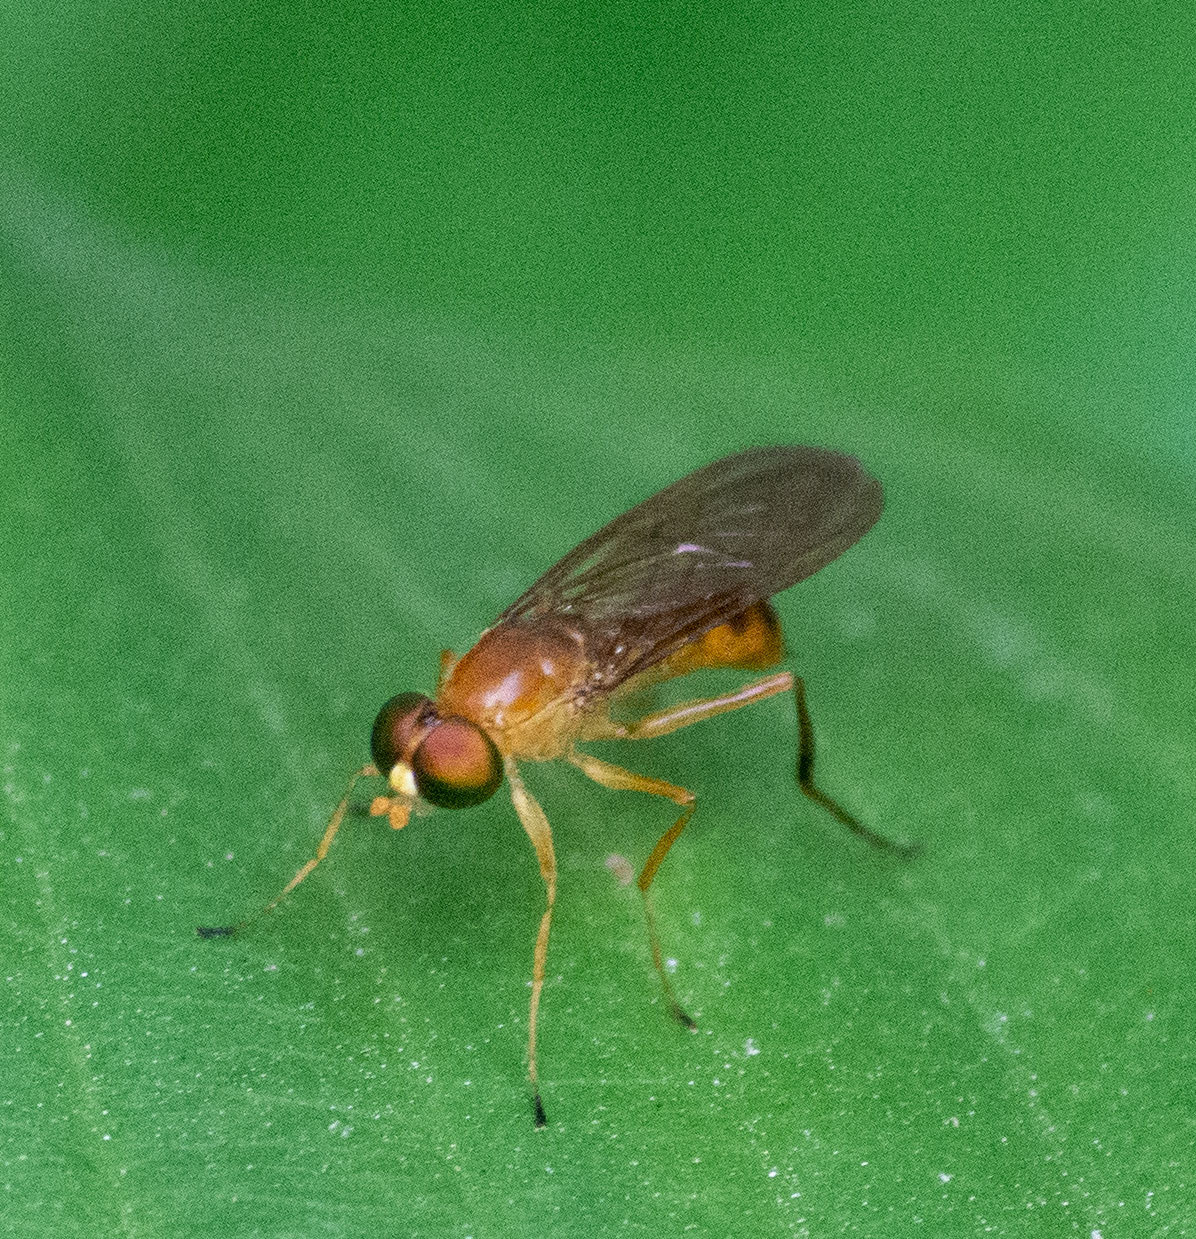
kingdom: Animalia
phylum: Arthropoda
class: Insecta
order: Diptera
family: Stratiomyidae
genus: Ptecticus
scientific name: Ptecticus trivittatus
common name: Compost fly
